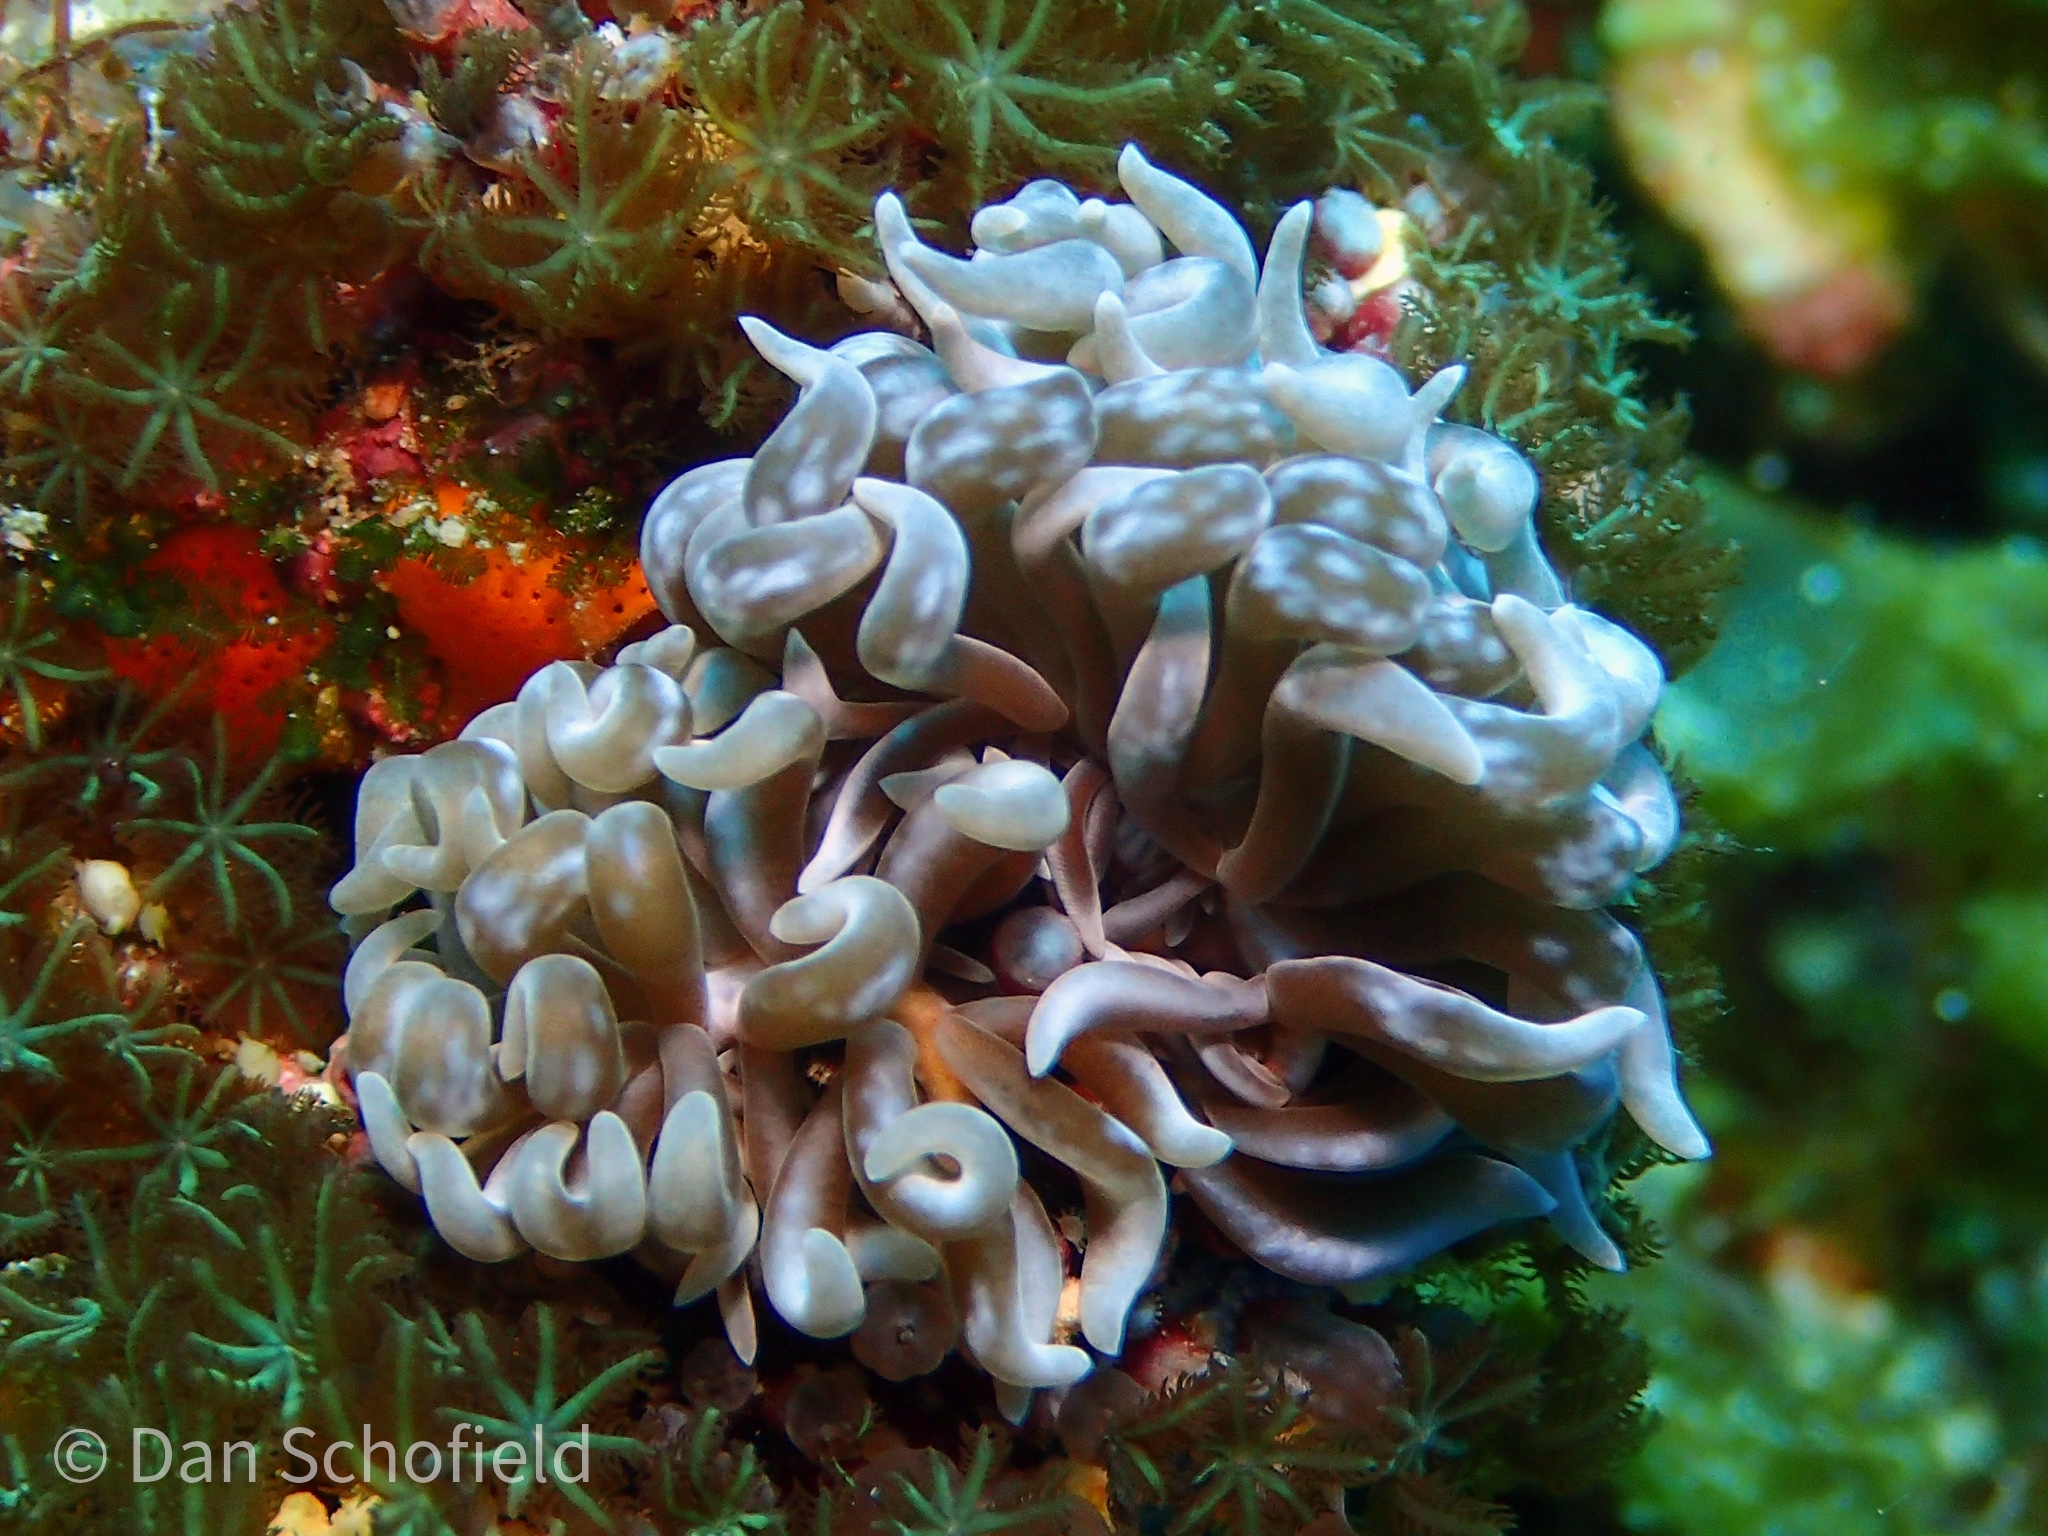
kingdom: Animalia
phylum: Cnidaria
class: Anthozoa
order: Actiniaria
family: Boloceroididae
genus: Boloceroides
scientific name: Boloceroides mcmurrichi
